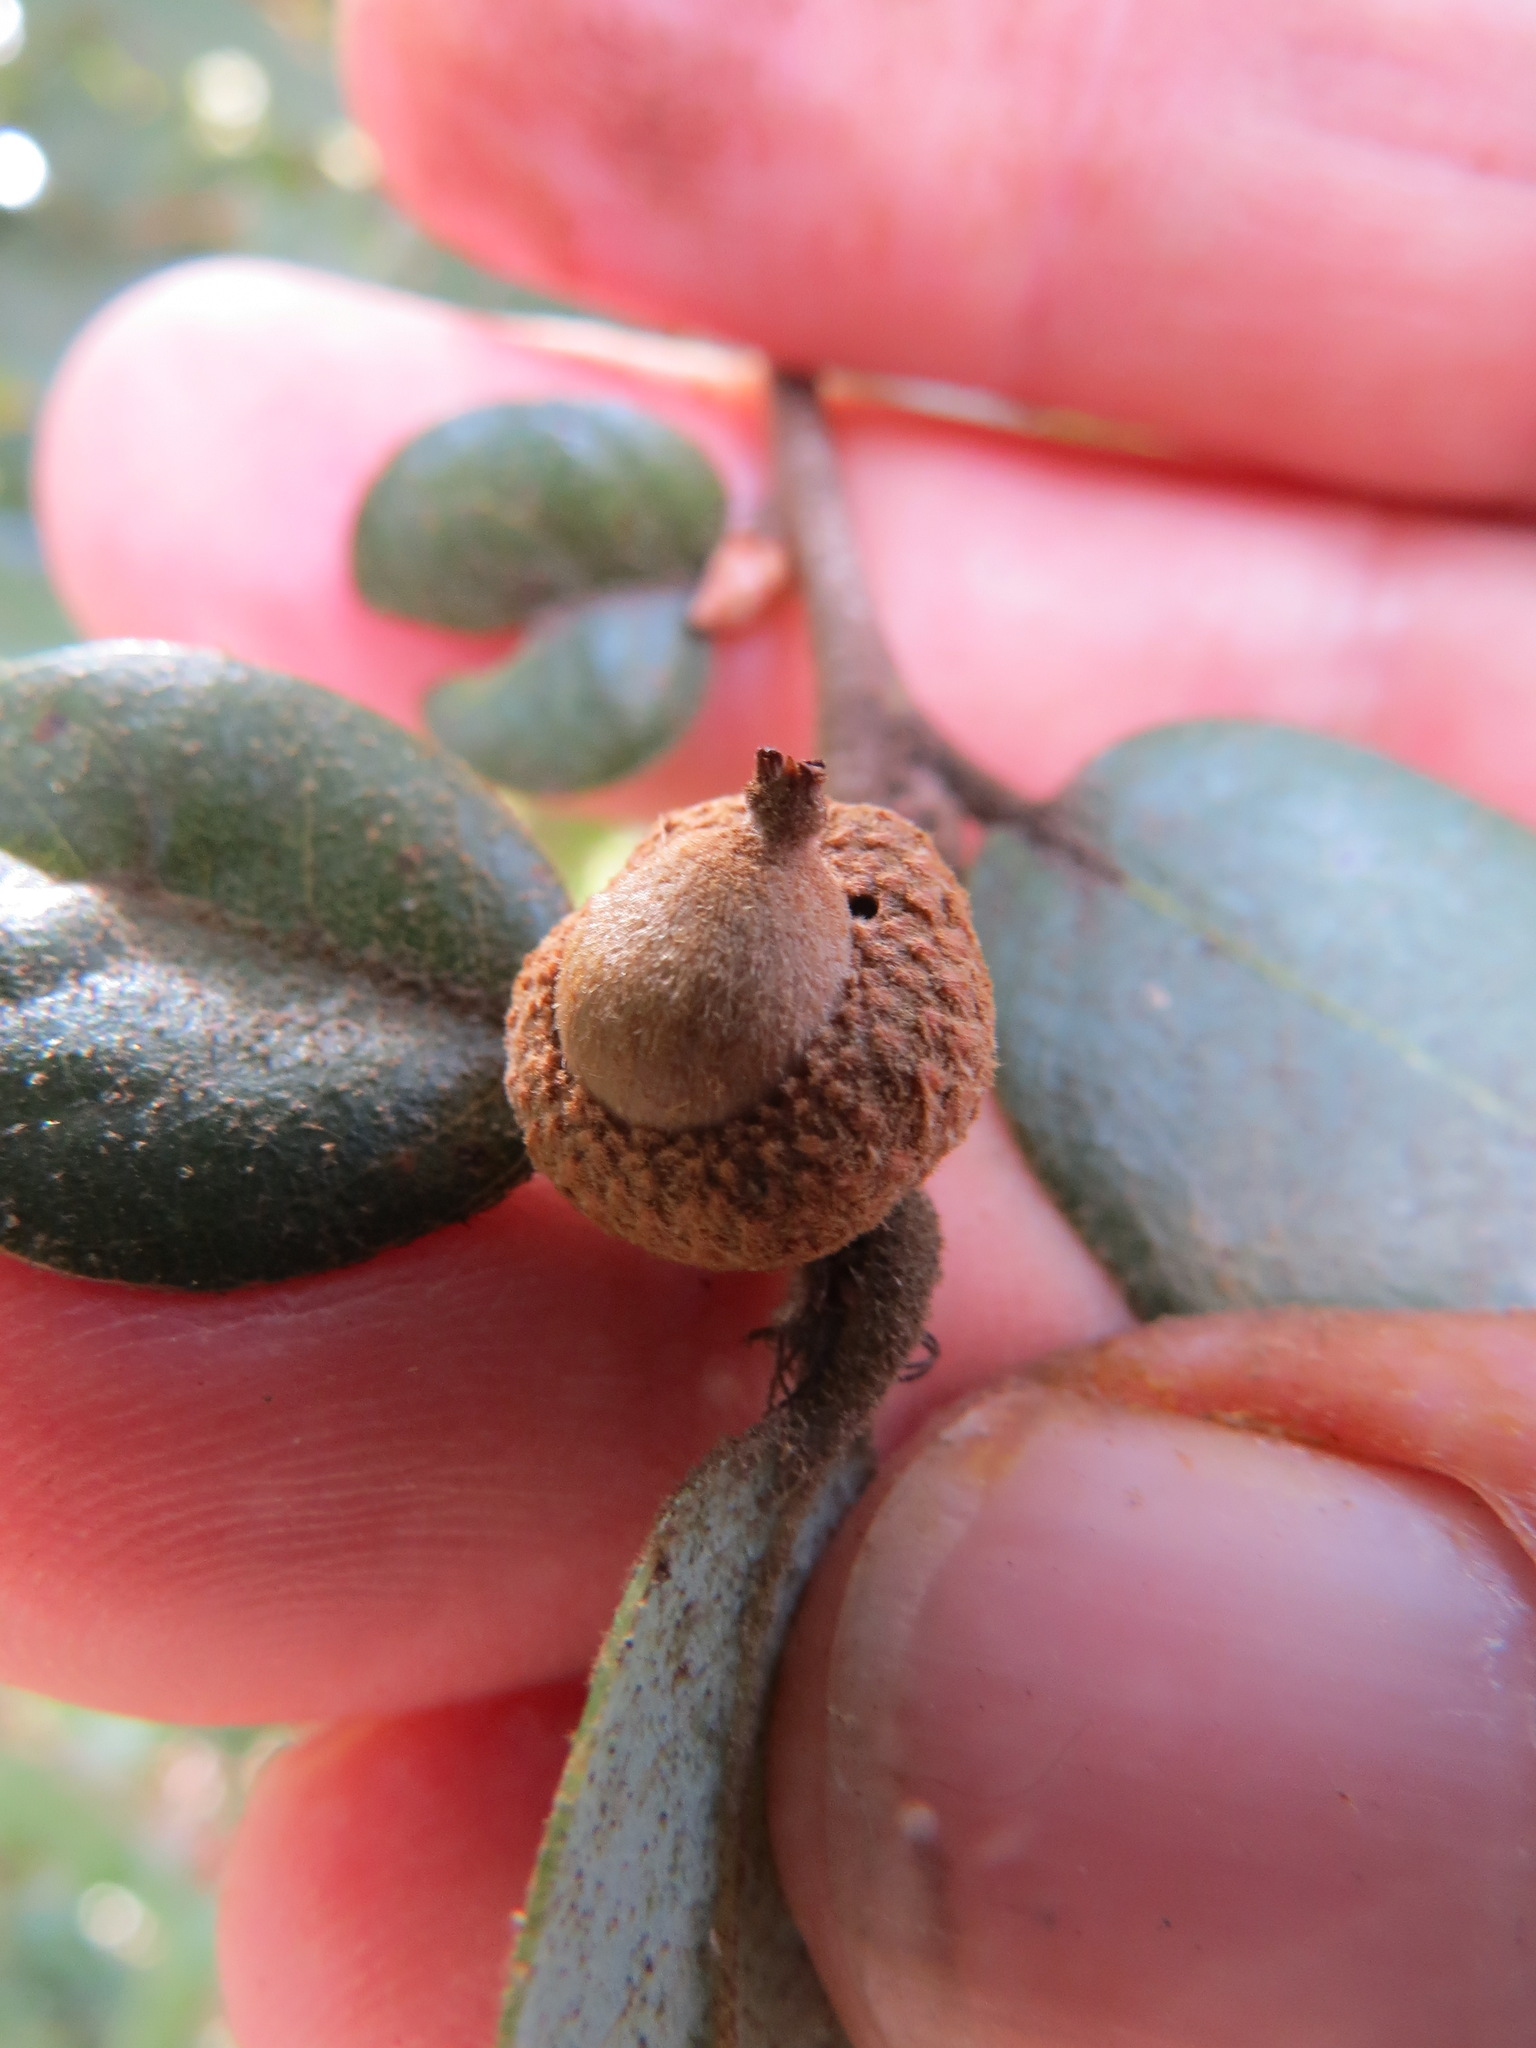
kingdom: Animalia
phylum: Arthropoda
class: Insecta
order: Hymenoptera
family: Cynipidae
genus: Andricus
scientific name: Andricus
